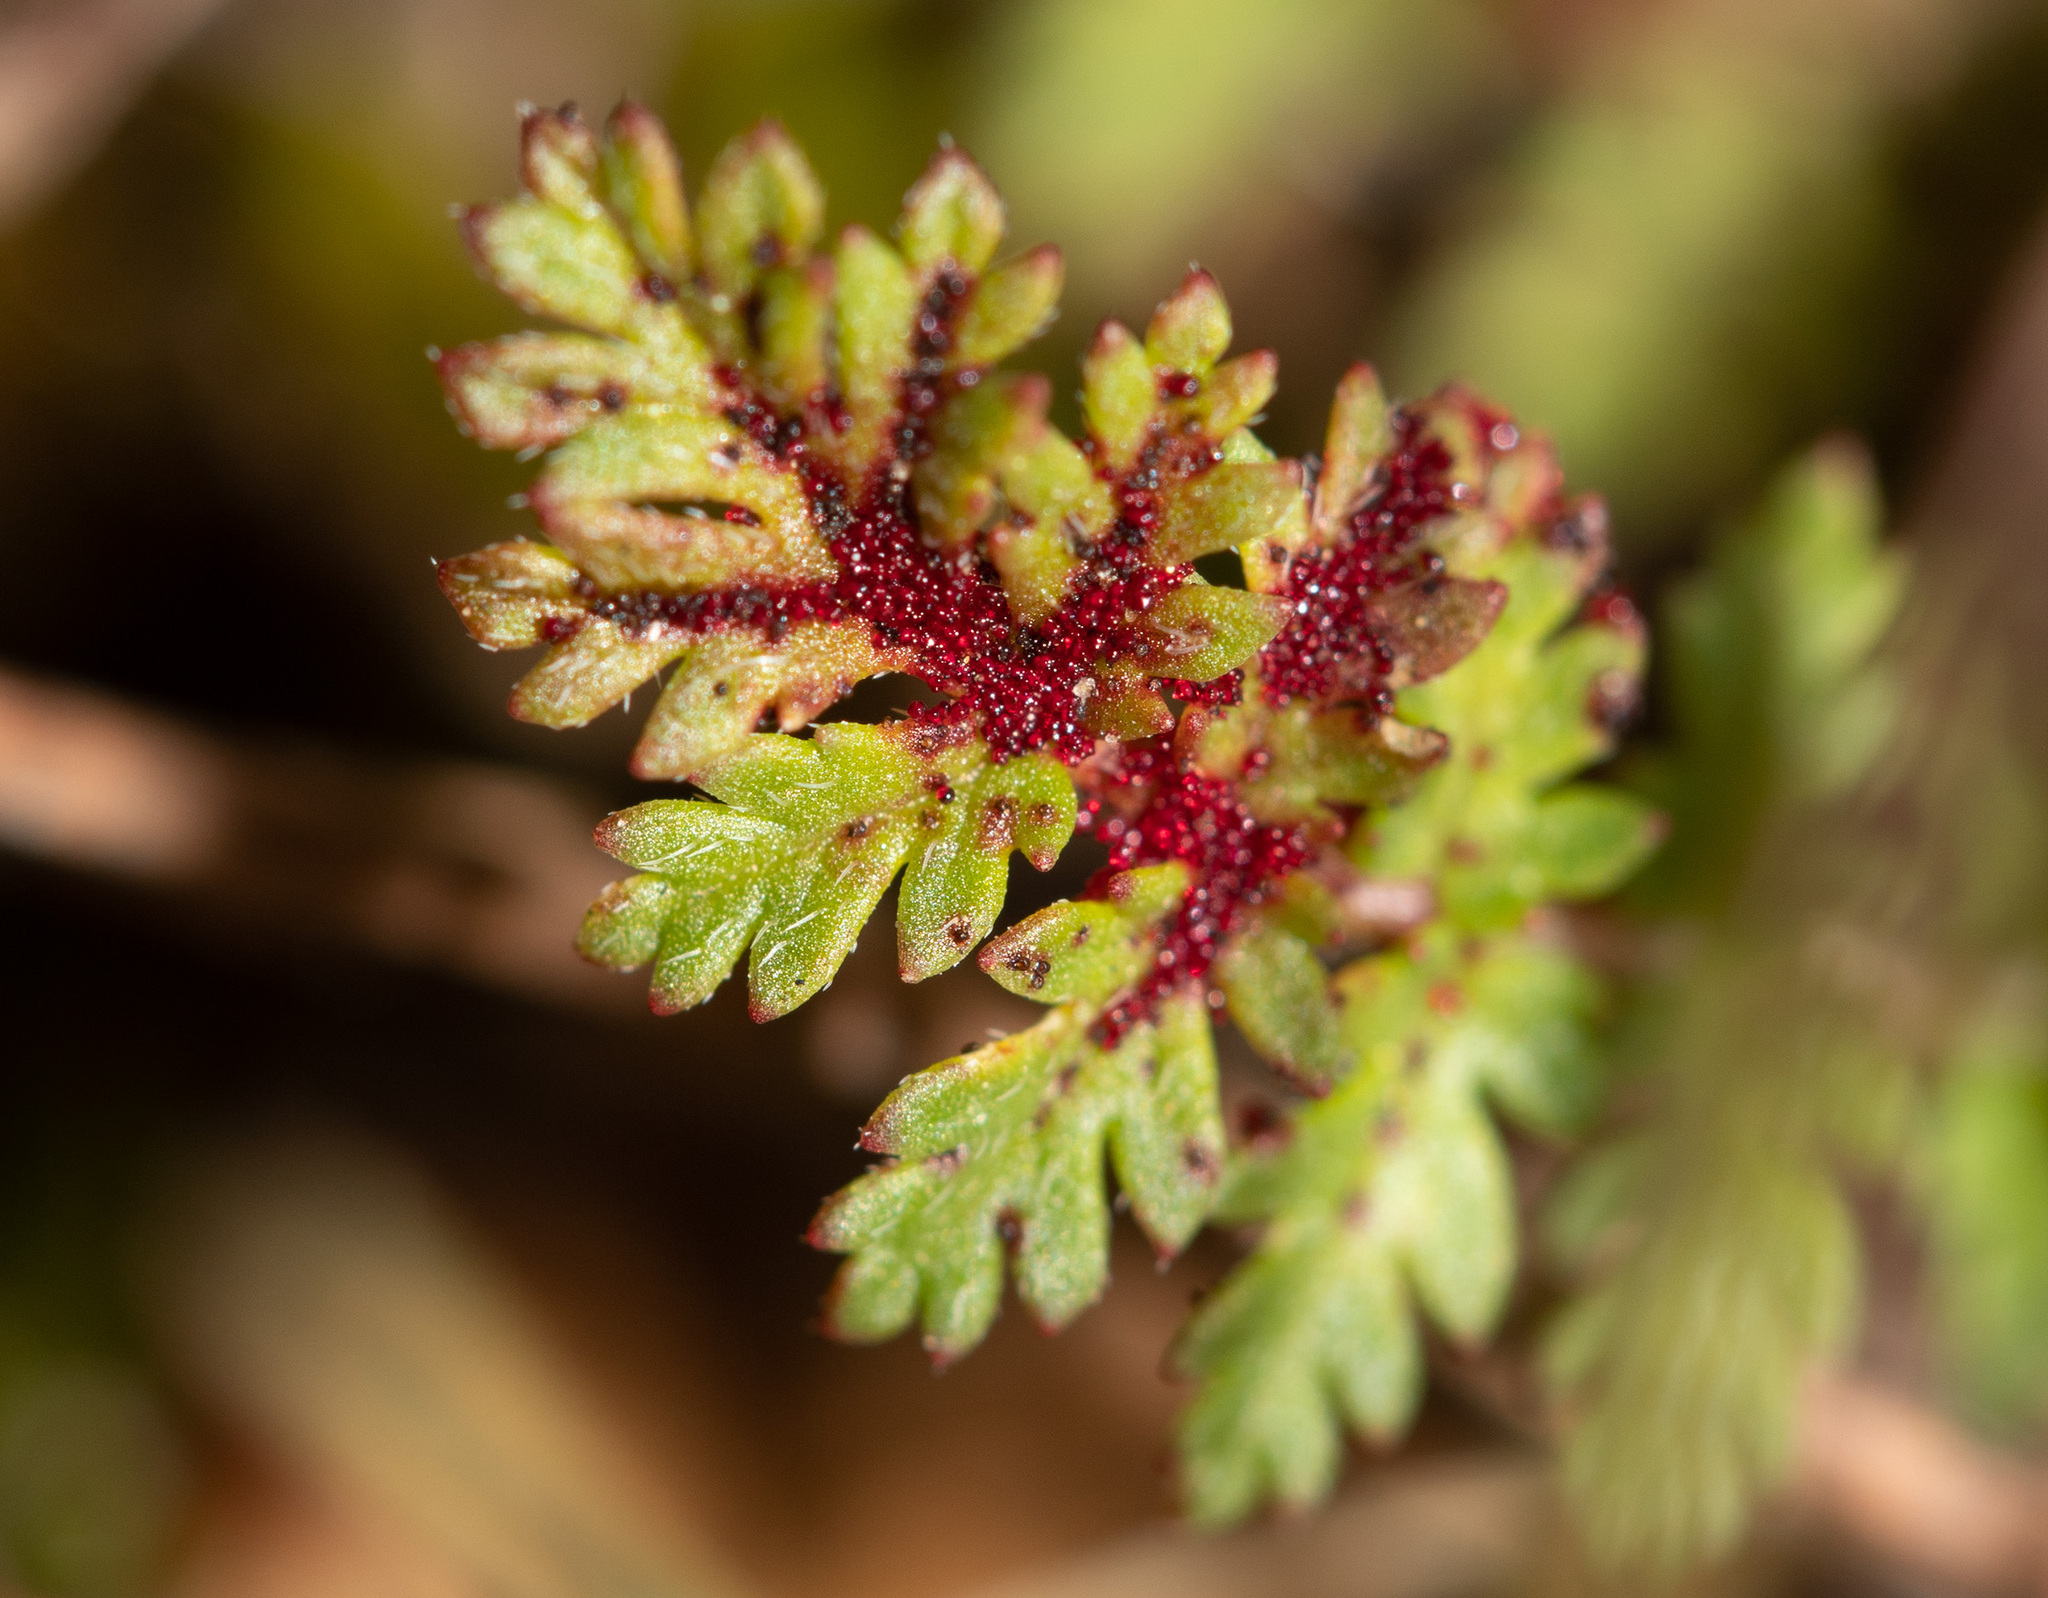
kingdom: Fungi
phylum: Chytridiomycota
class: Chytridiomycetes
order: Chytridiales
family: Synchytriaceae
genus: Synchytrium
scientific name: Synchytrium papillatum
